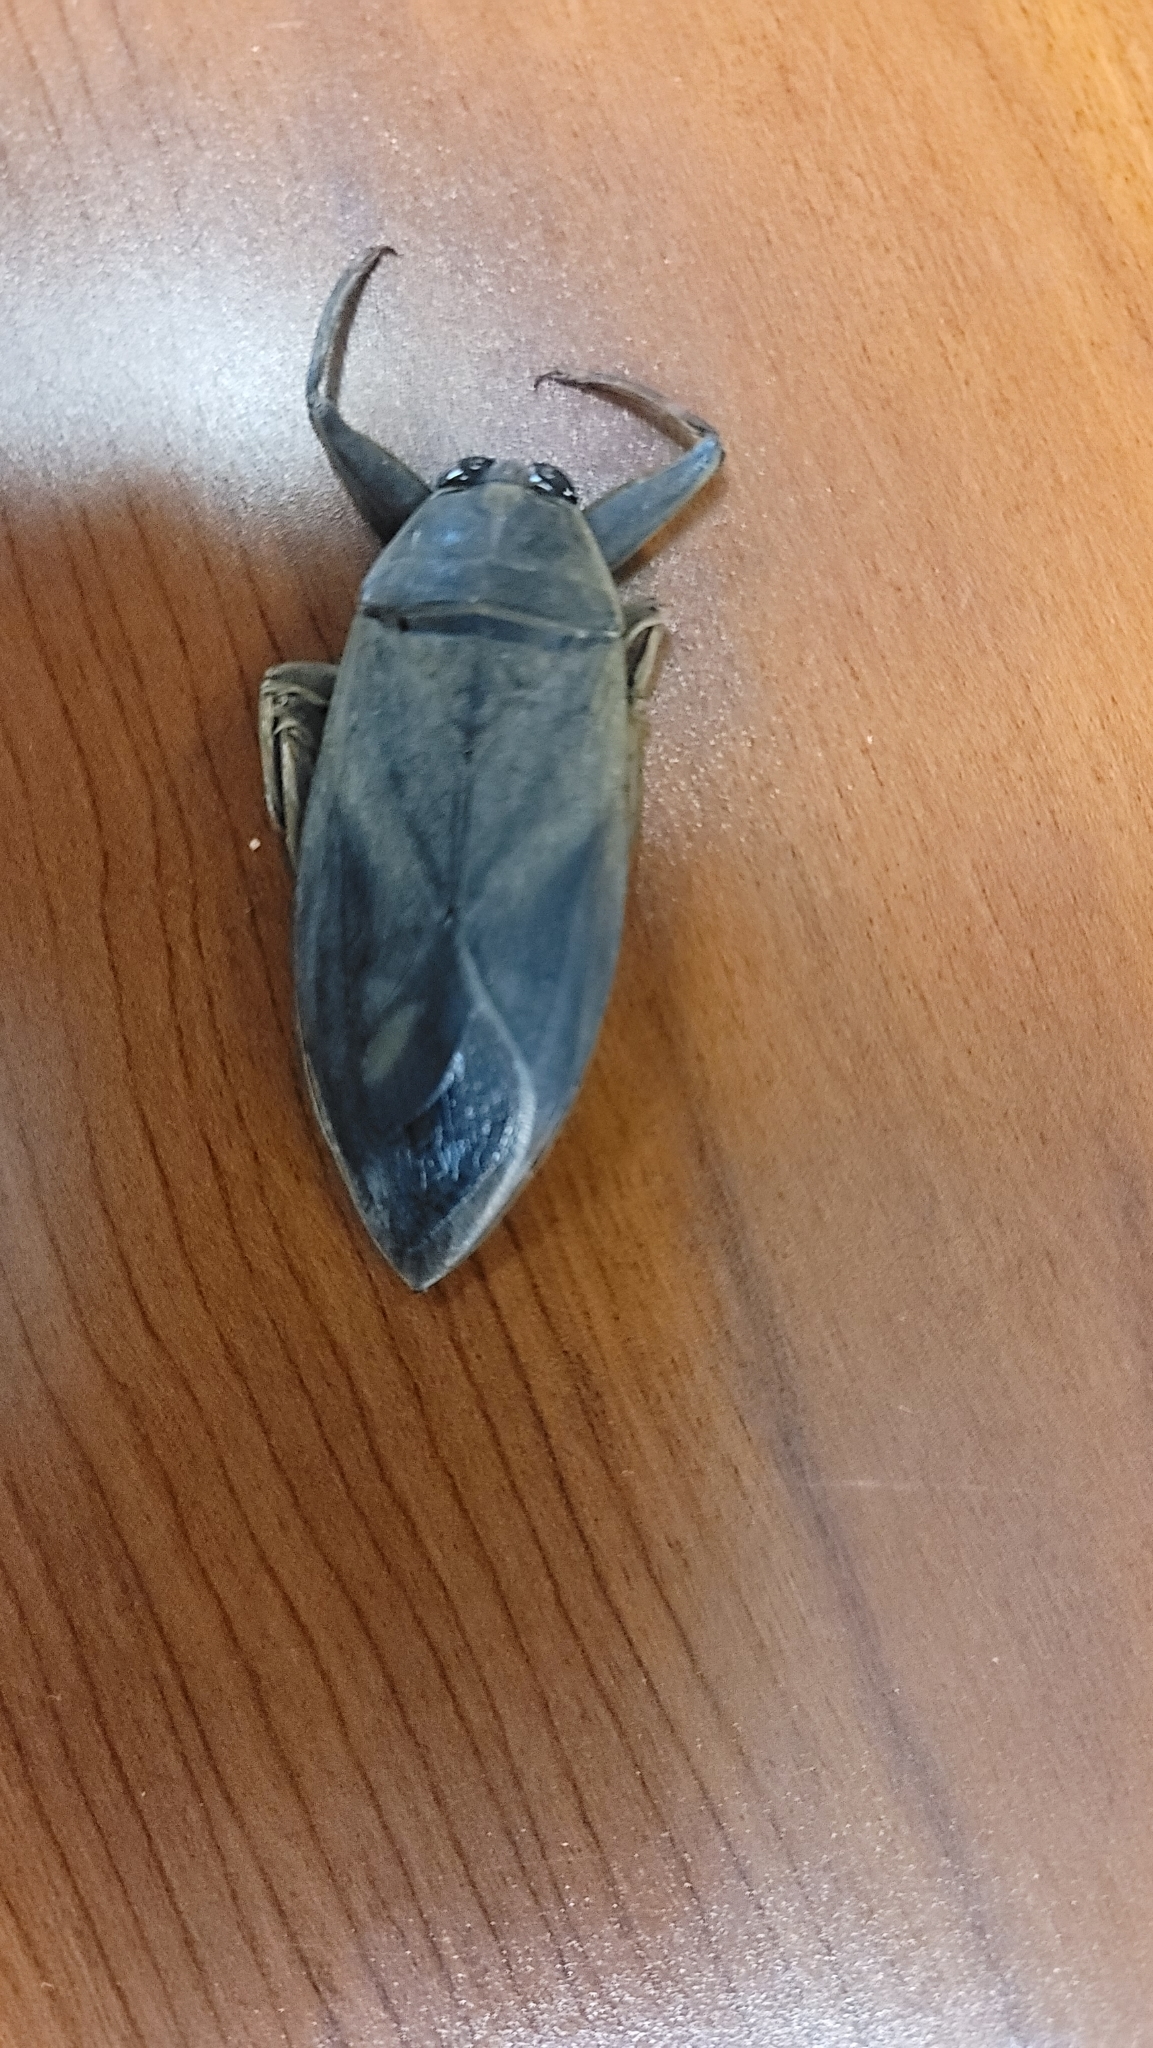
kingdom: Animalia
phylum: Arthropoda
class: Insecta
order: Hemiptera
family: Belostomatidae
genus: Benacus
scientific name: Benacus griseus
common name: Eastern toe-biter
